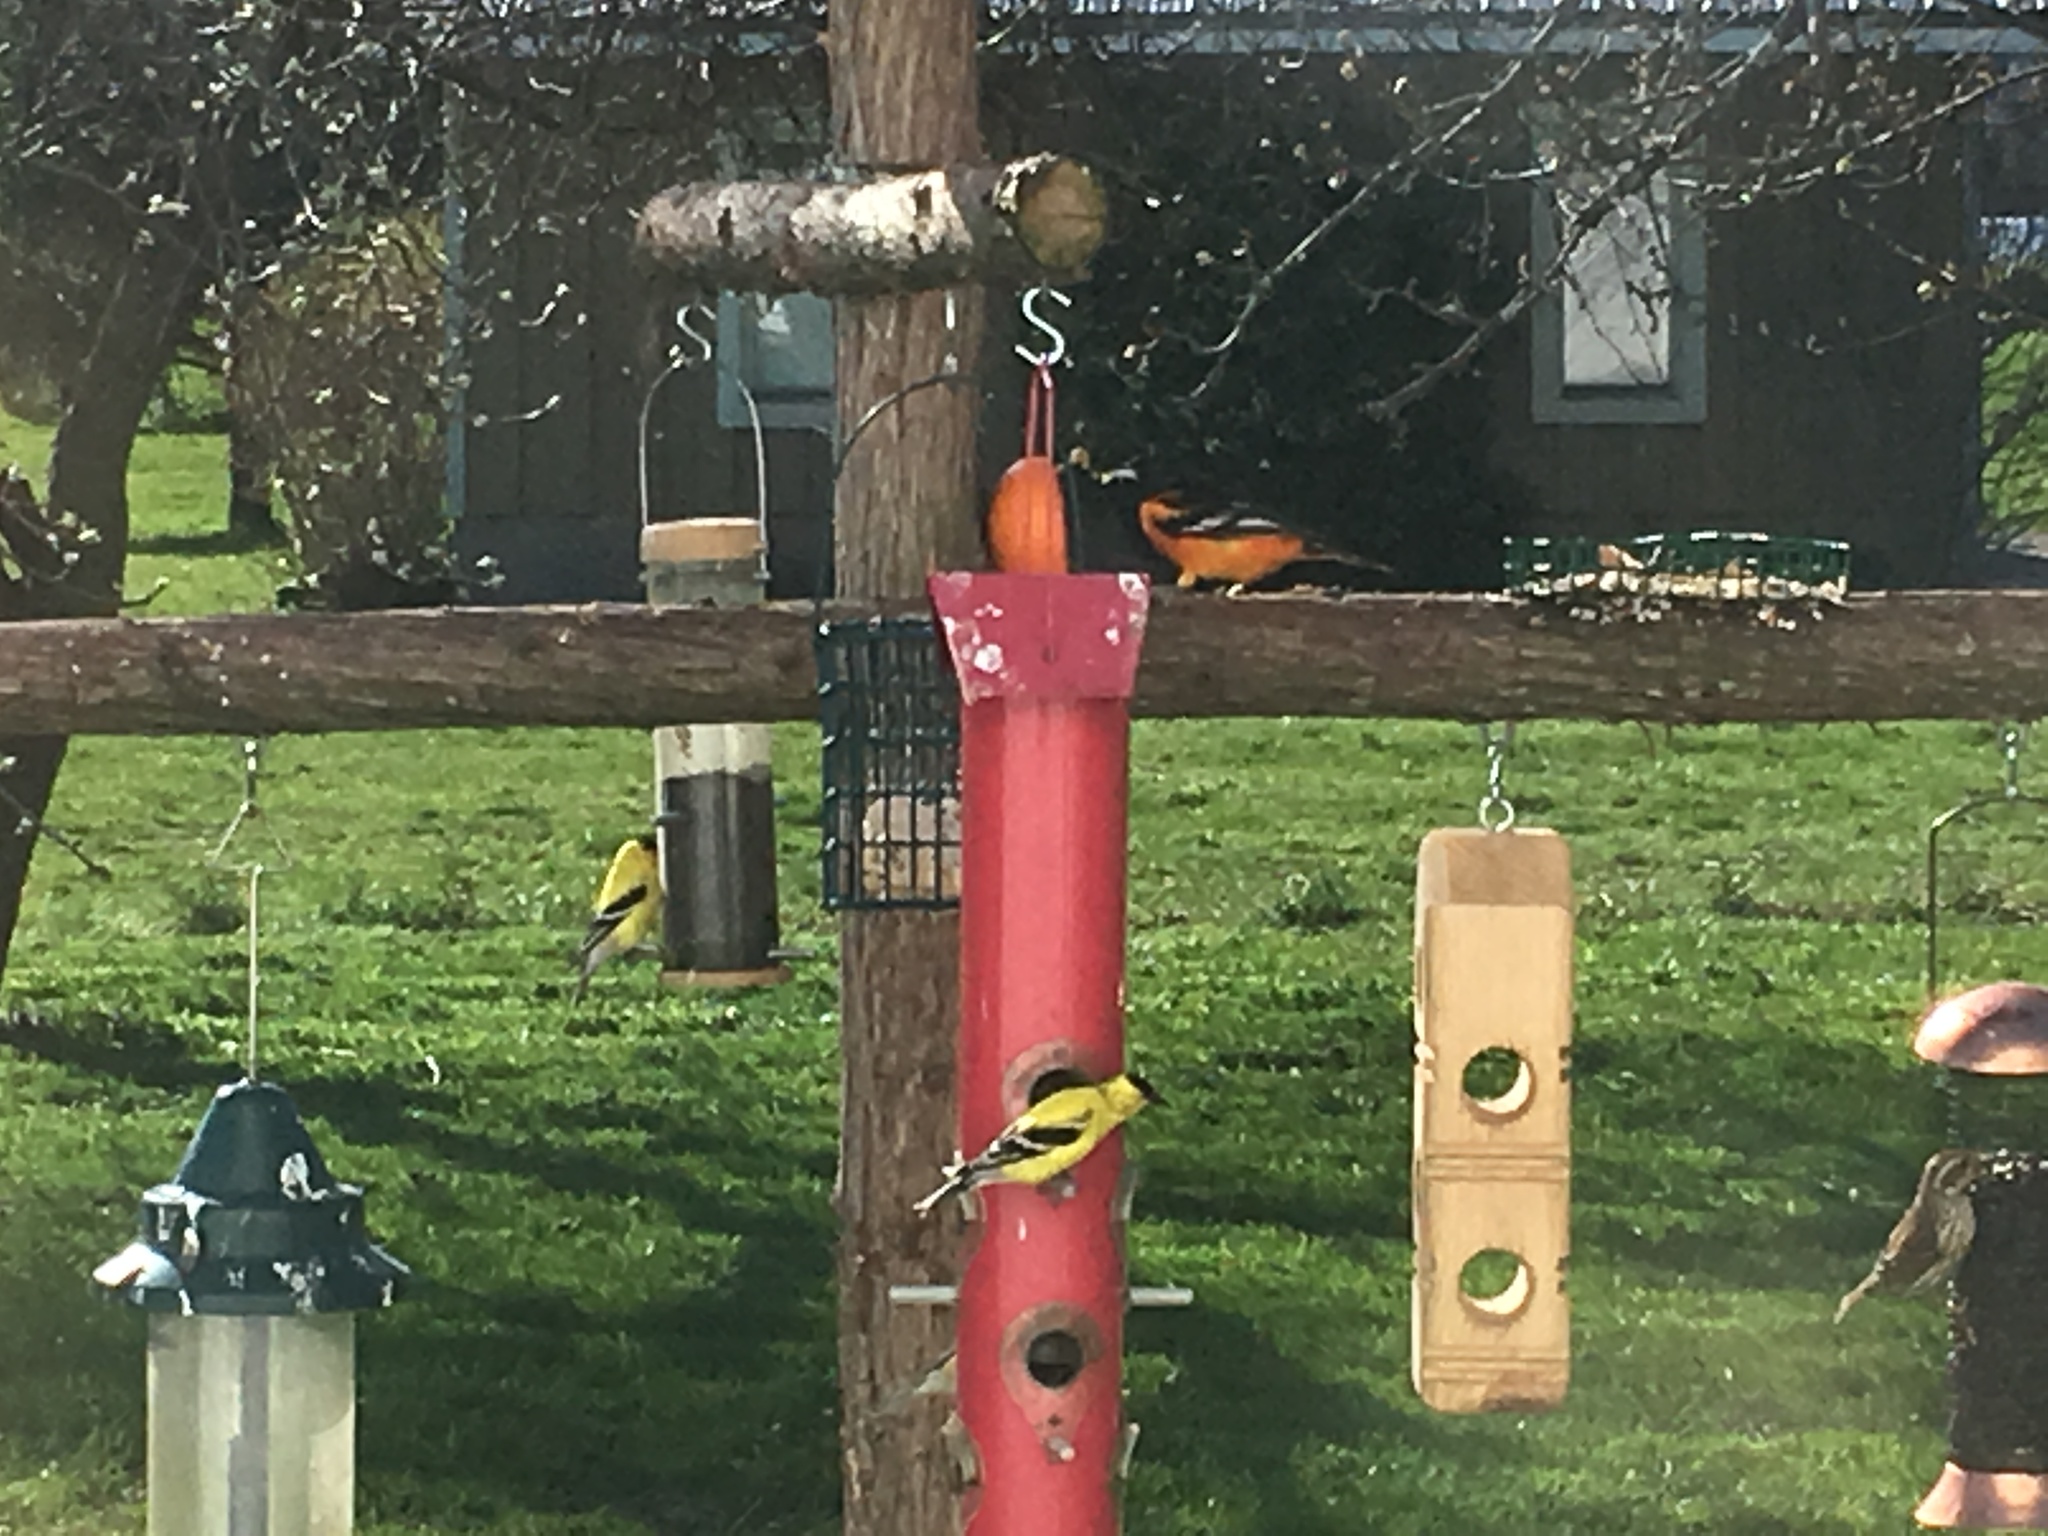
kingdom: Animalia
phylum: Chordata
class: Aves
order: Passeriformes
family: Icteridae
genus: Icterus
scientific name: Icterus galbula
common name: Baltimore oriole
